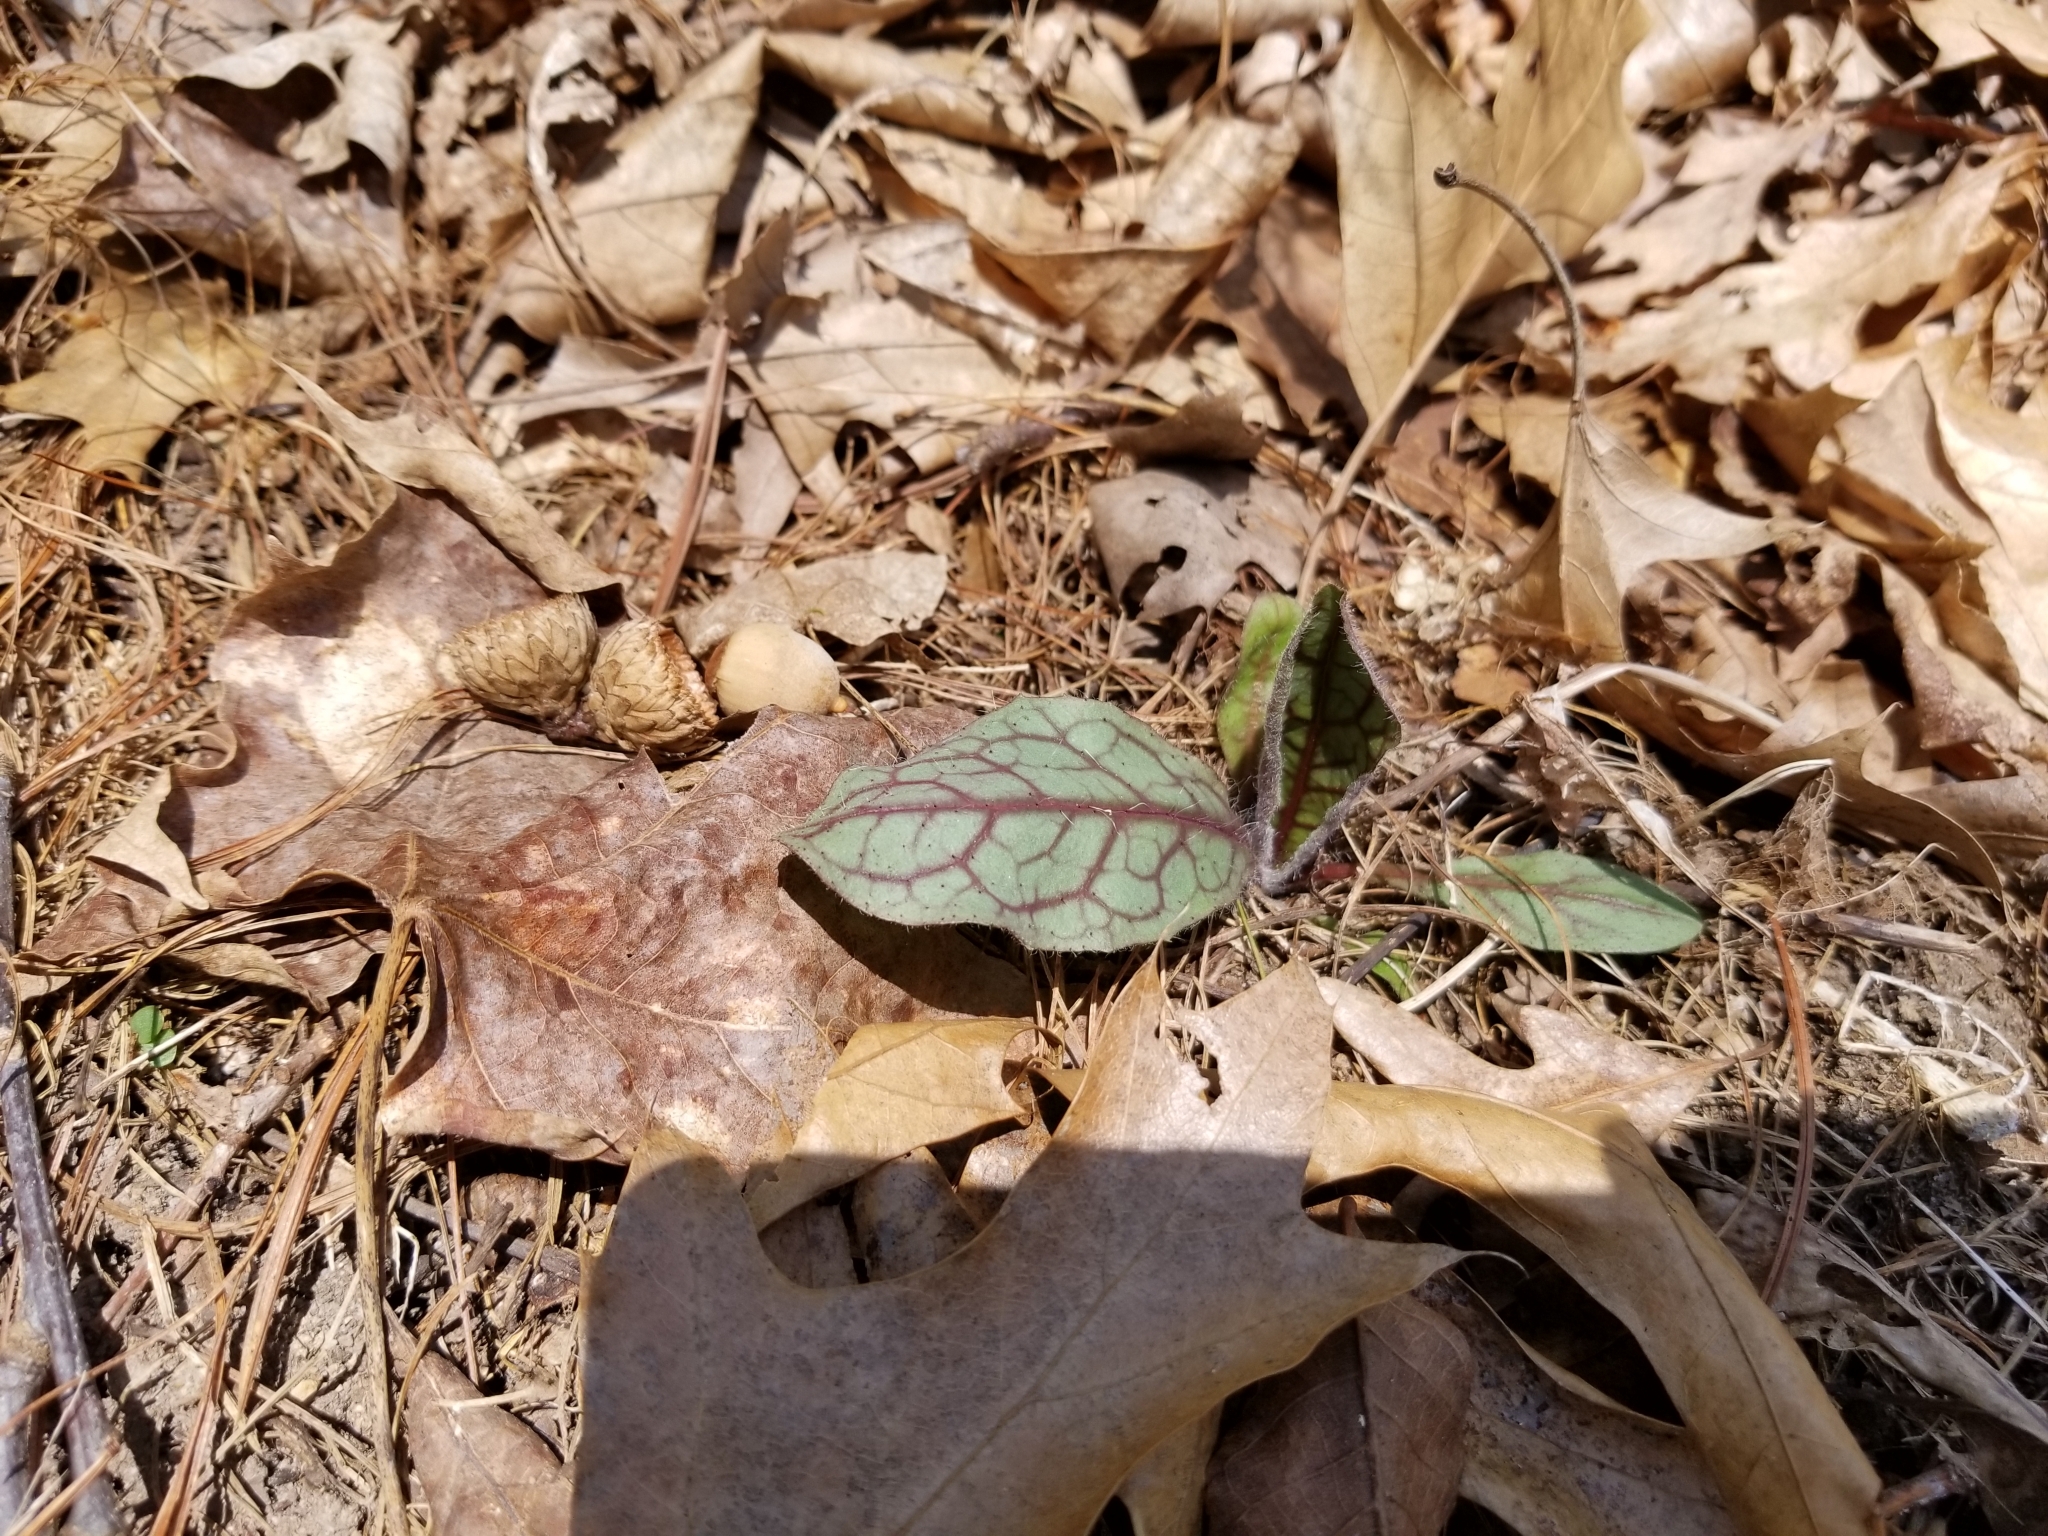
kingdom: Plantae
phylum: Tracheophyta
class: Magnoliopsida
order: Asterales
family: Asteraceae
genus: Hieracium
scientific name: Hieracium venosum
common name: Rattlesnake hawkweed
